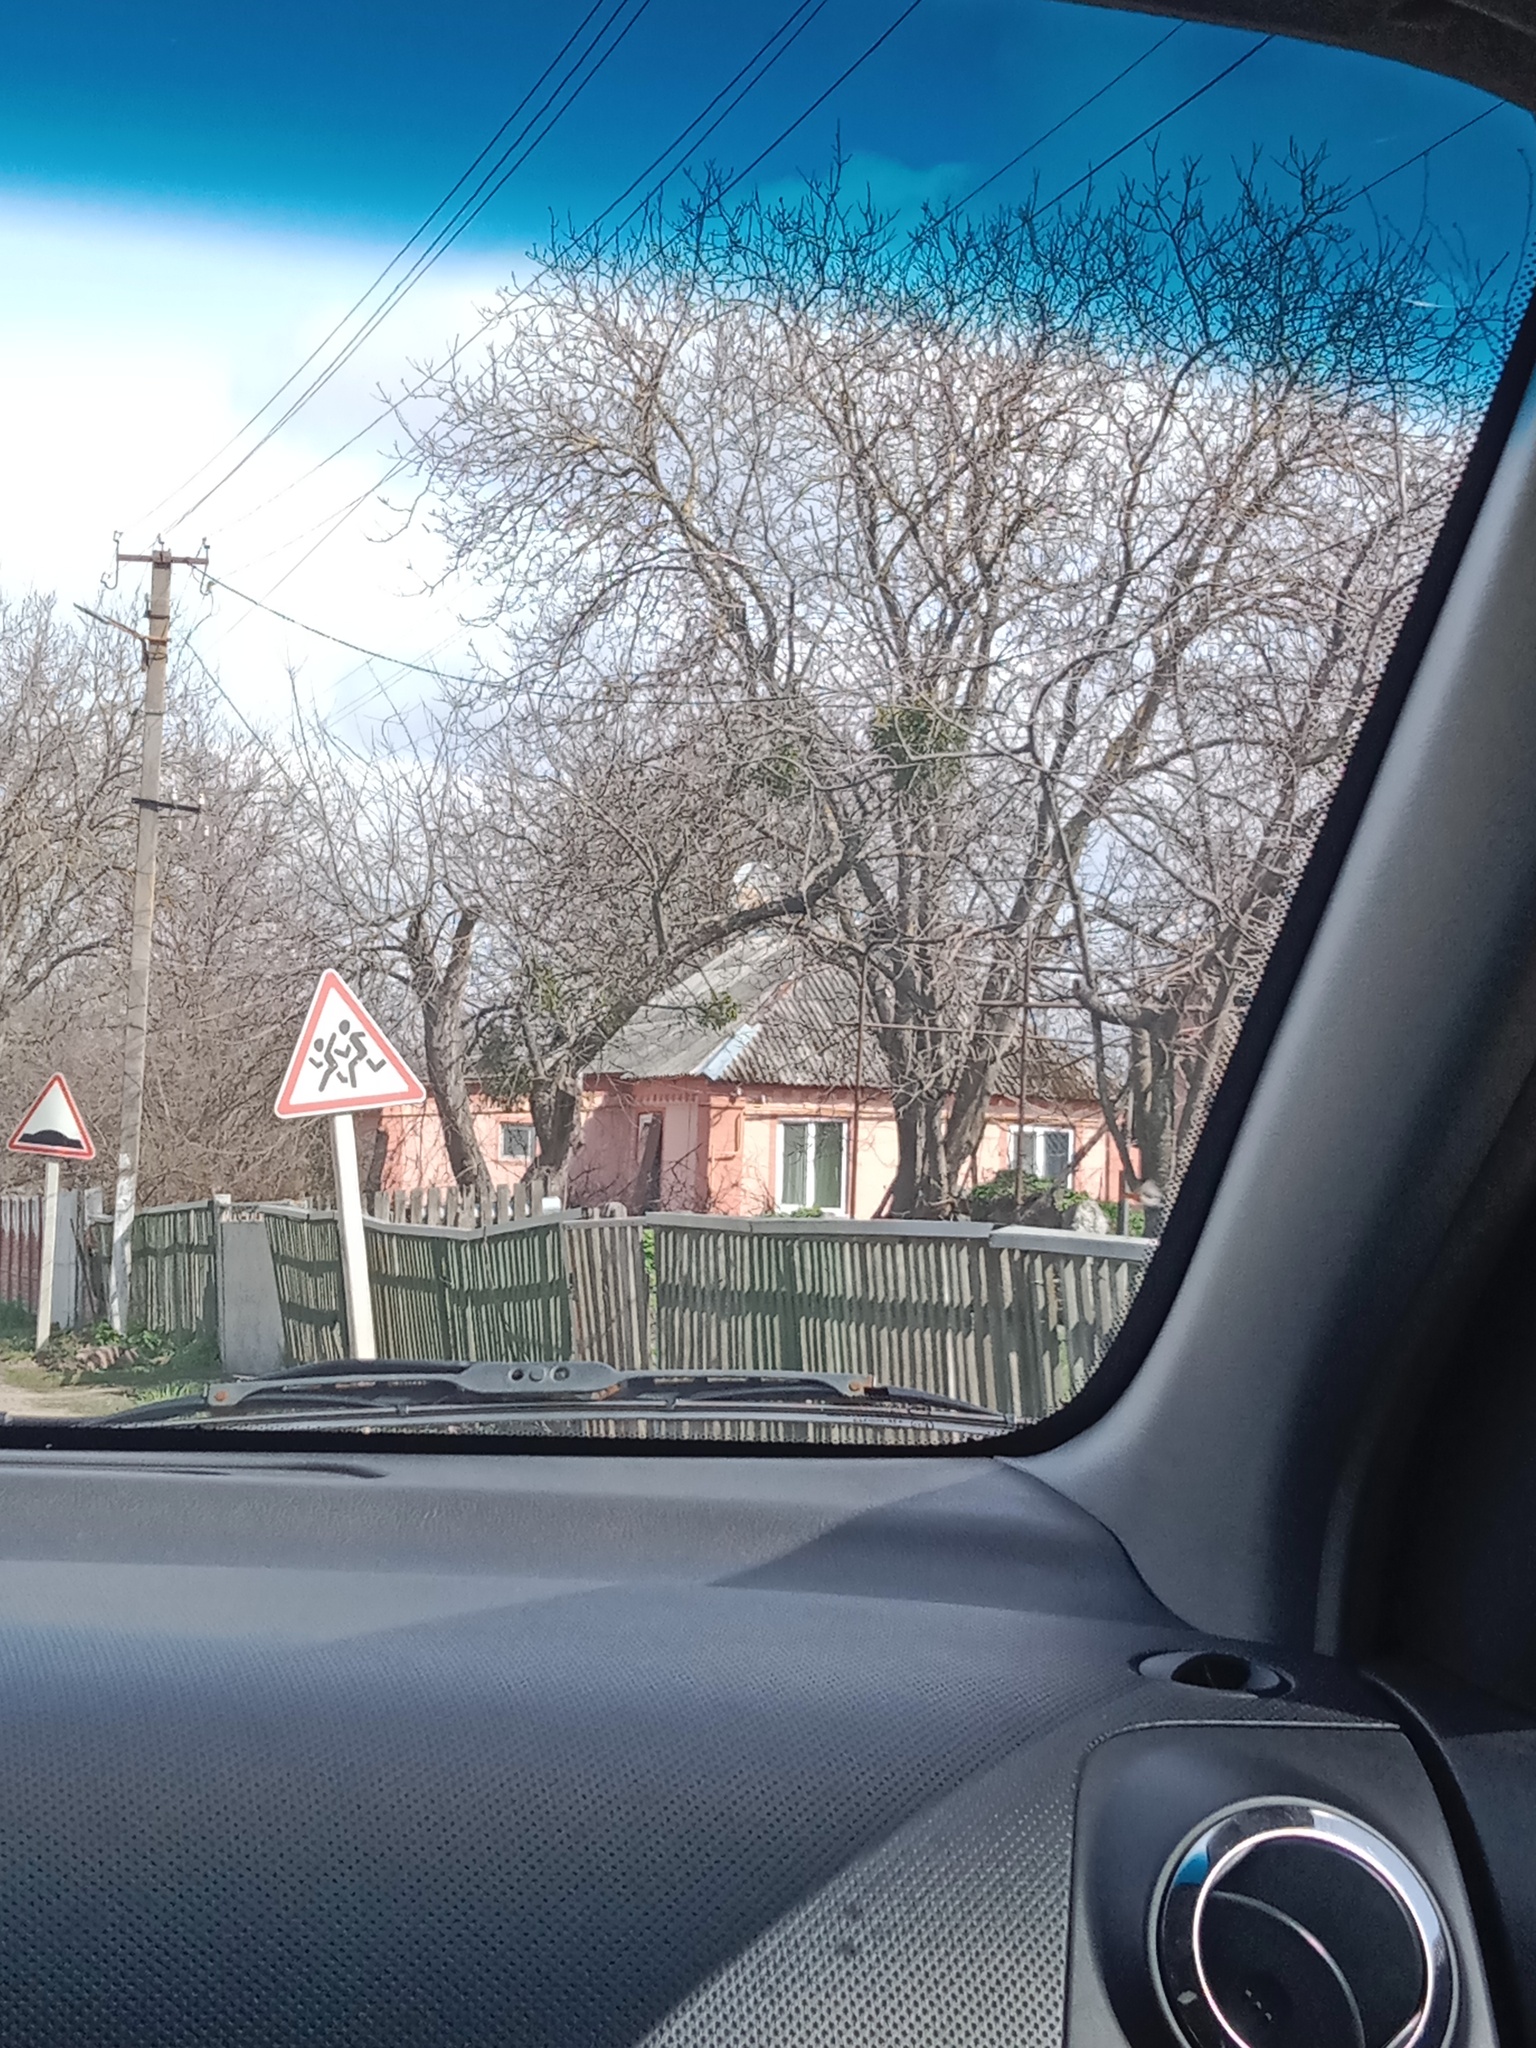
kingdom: Plantae
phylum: Tracheophyta
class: Magnoliopsida
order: Santalales
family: Viscaceae
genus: Viscum
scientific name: Viscum album
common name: Mistletoe
